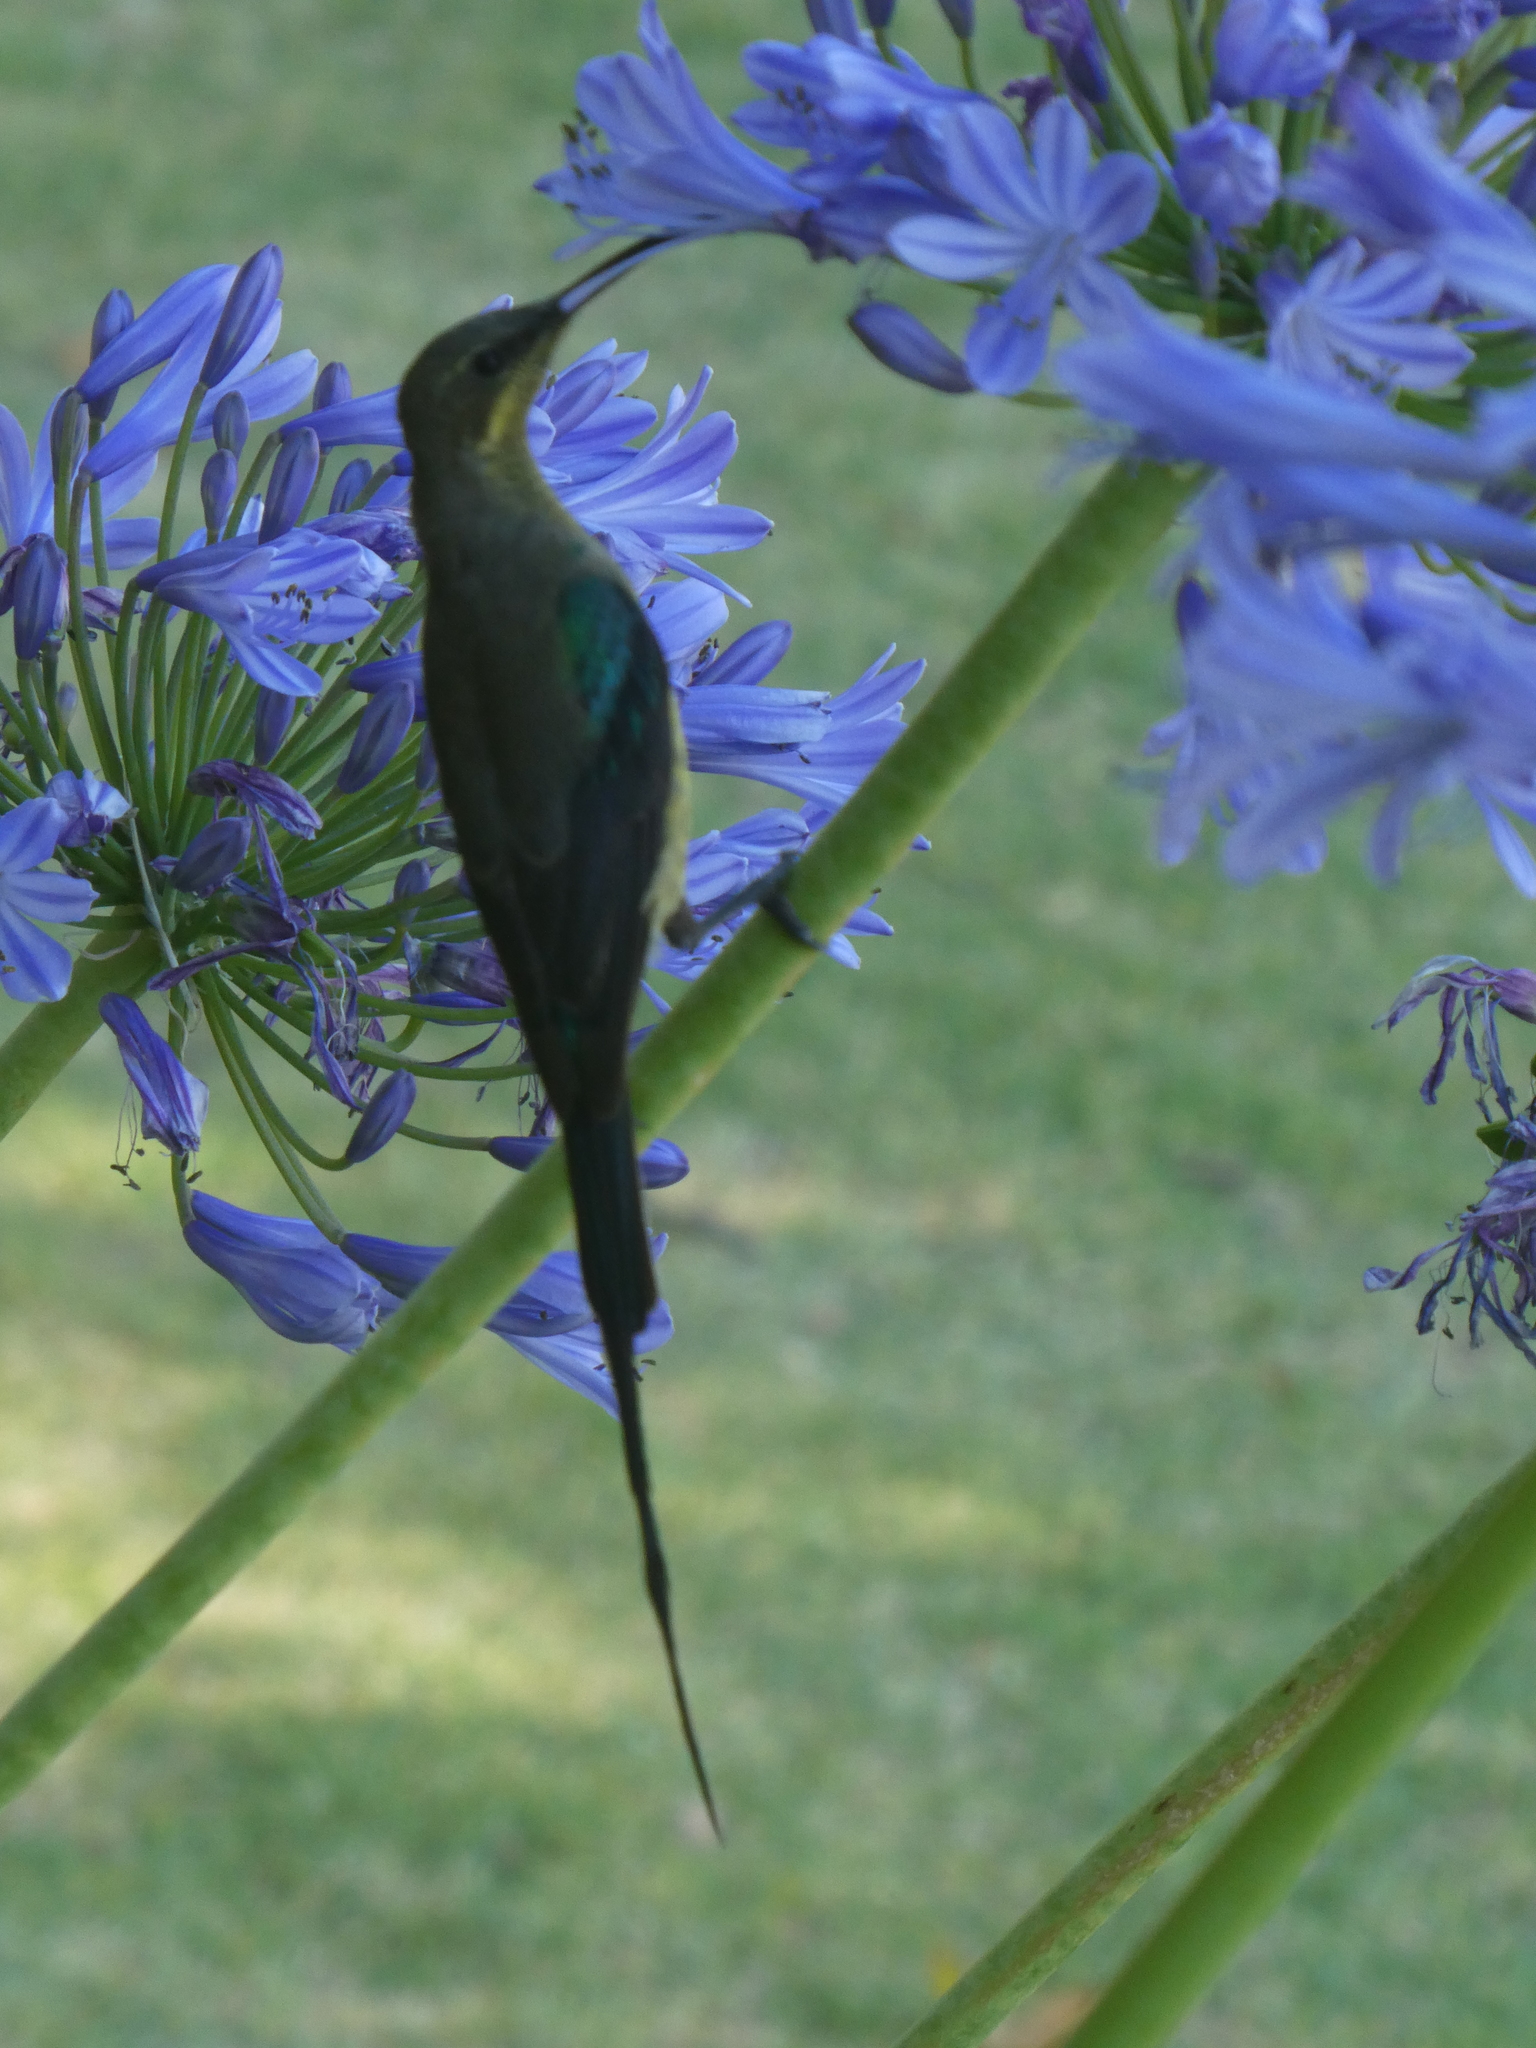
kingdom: Animalia
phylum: Chordata
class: Aves
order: Passeriformes
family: Nectariniidae
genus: Nectarinia
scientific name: Nectarinia famosa
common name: Malachite sunbird
